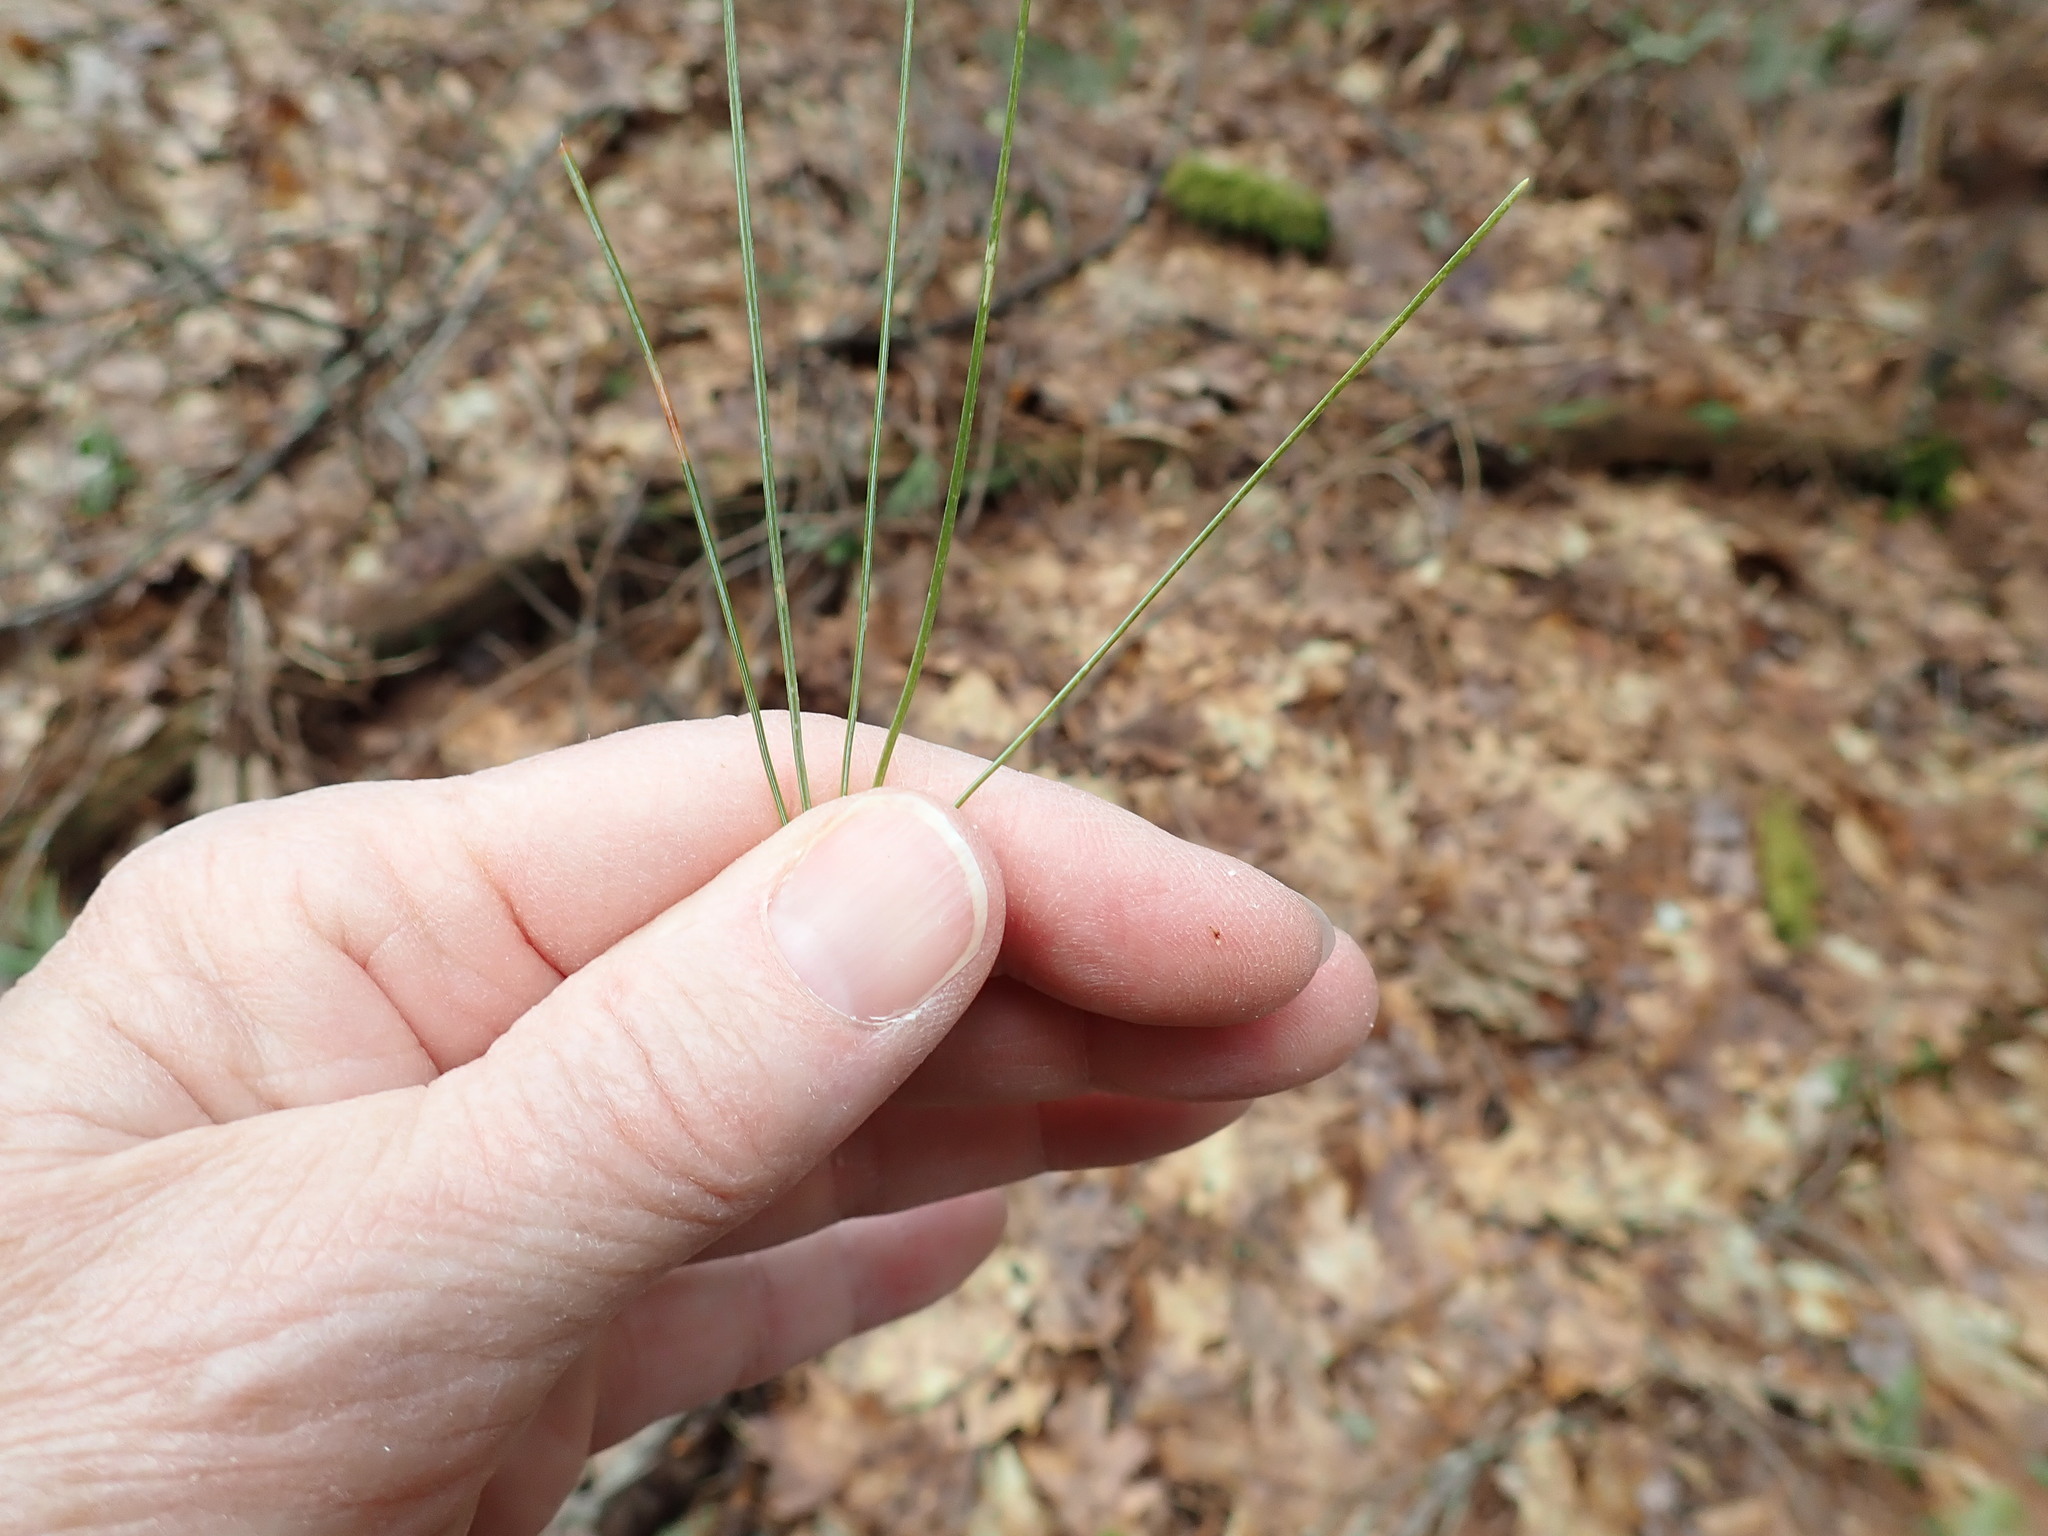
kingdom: Plantae
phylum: Tracheophyta
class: Pinopsida
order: Pinales
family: Pinaceae
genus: Pinus
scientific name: Pinus strobus
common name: Weymouth pine
